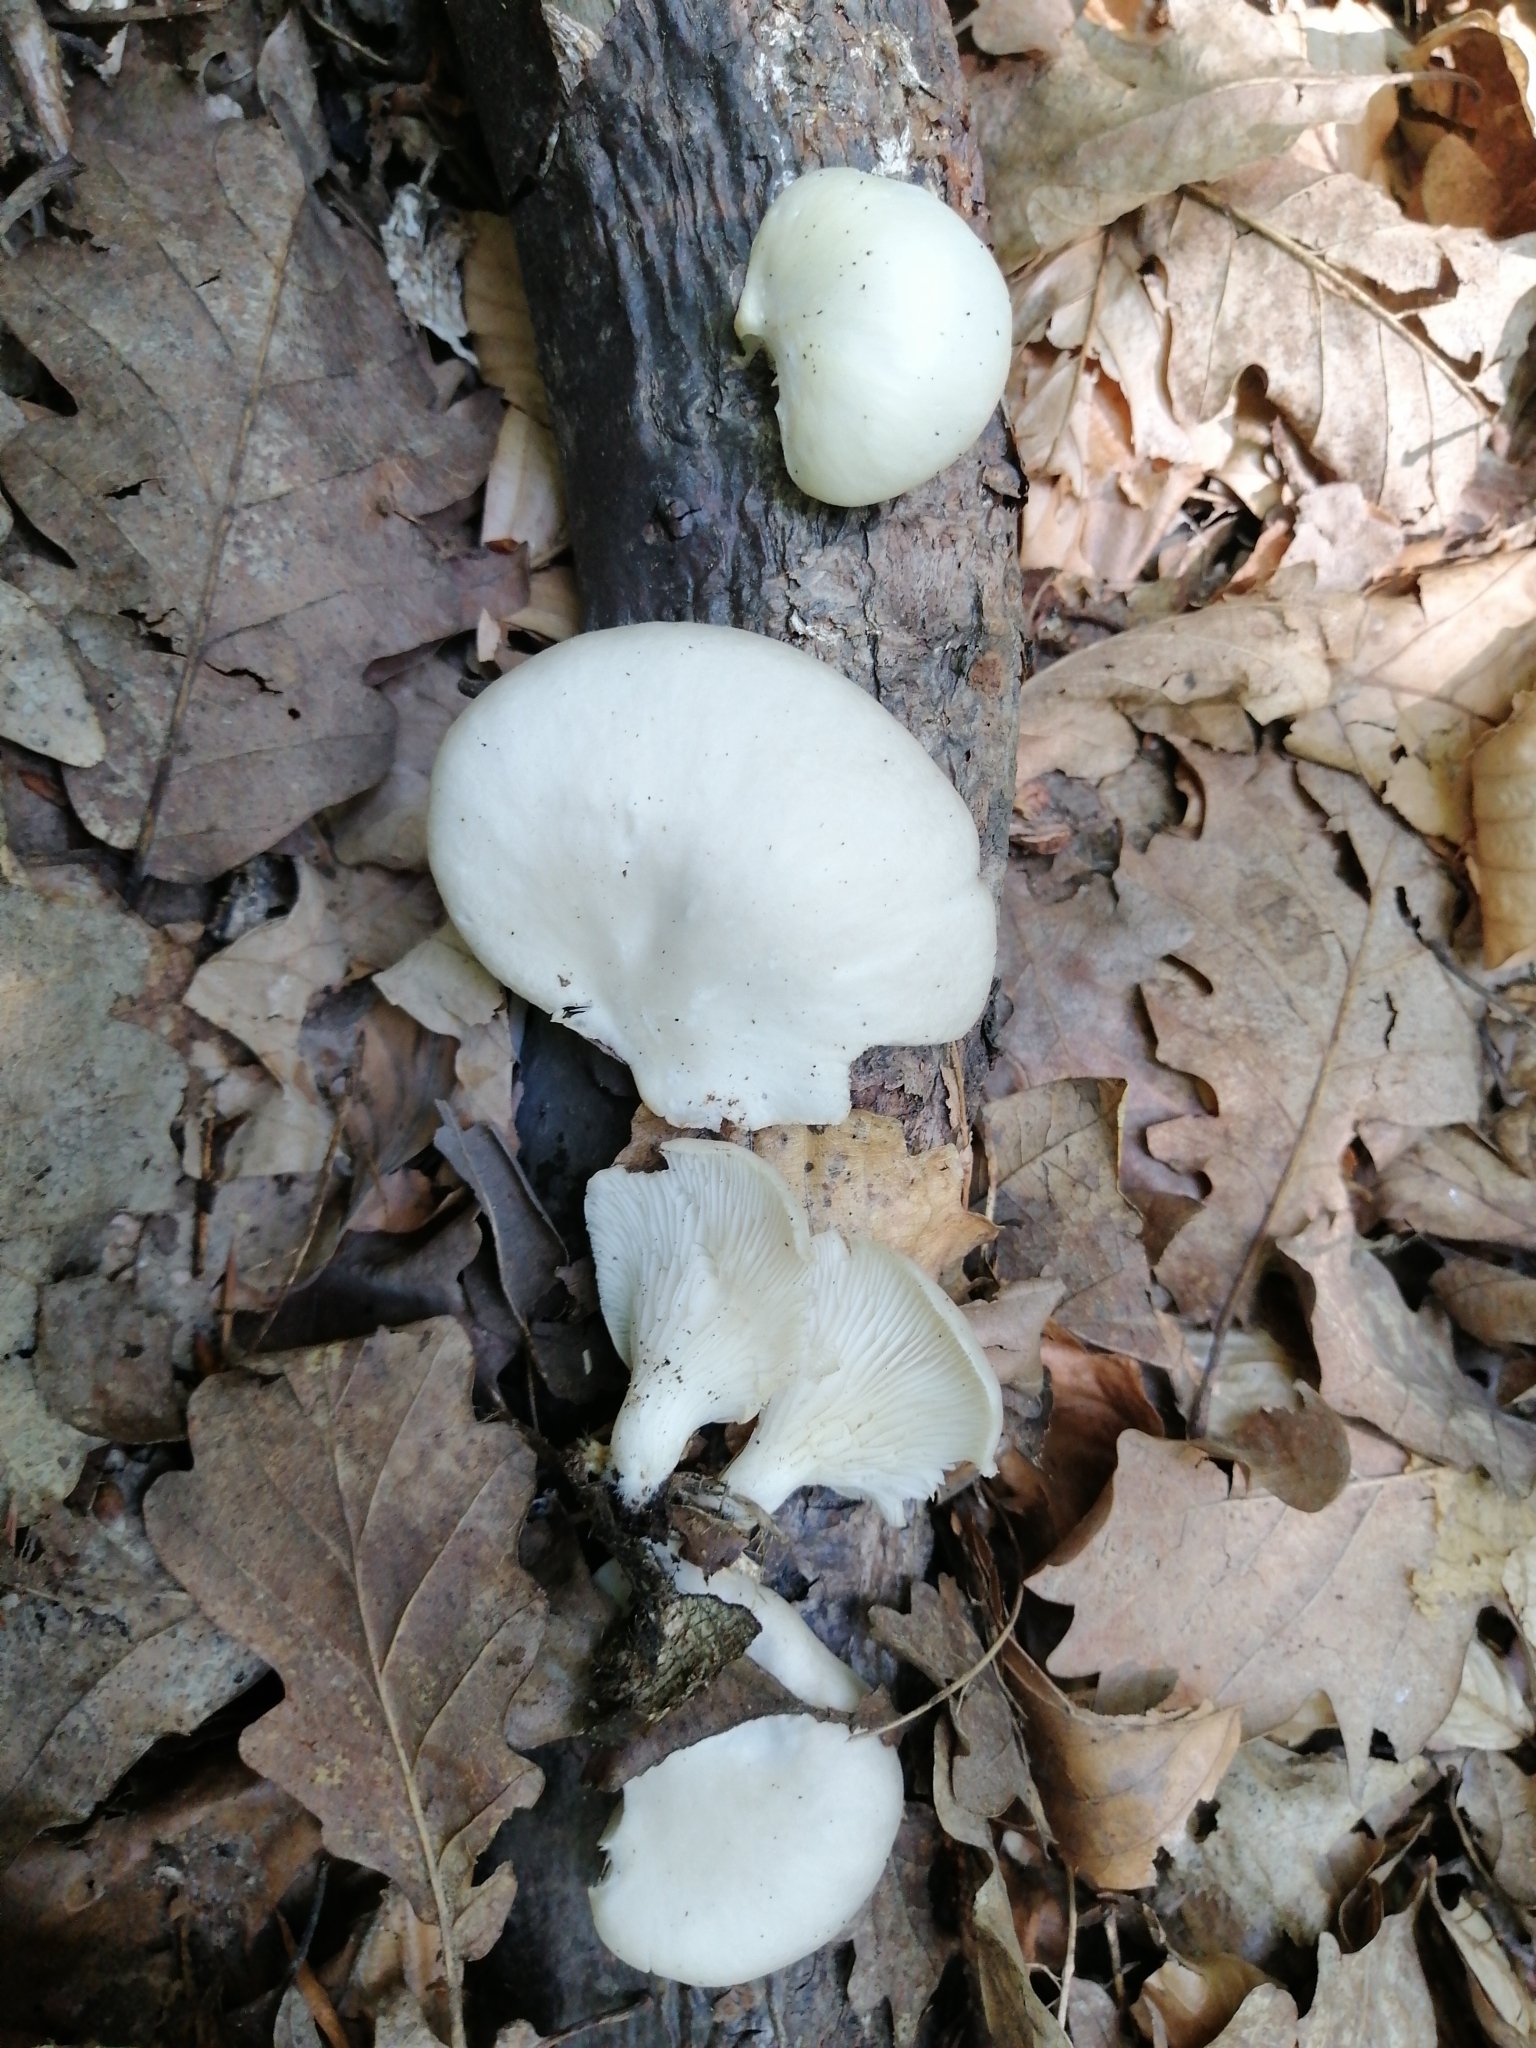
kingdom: Fungi
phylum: Basidiomycota
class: Agaricomycetes
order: Agaricales
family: Pleurotaceae
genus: Pleurotus
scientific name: Pleurotus pulmonarius
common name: Pale oyster
